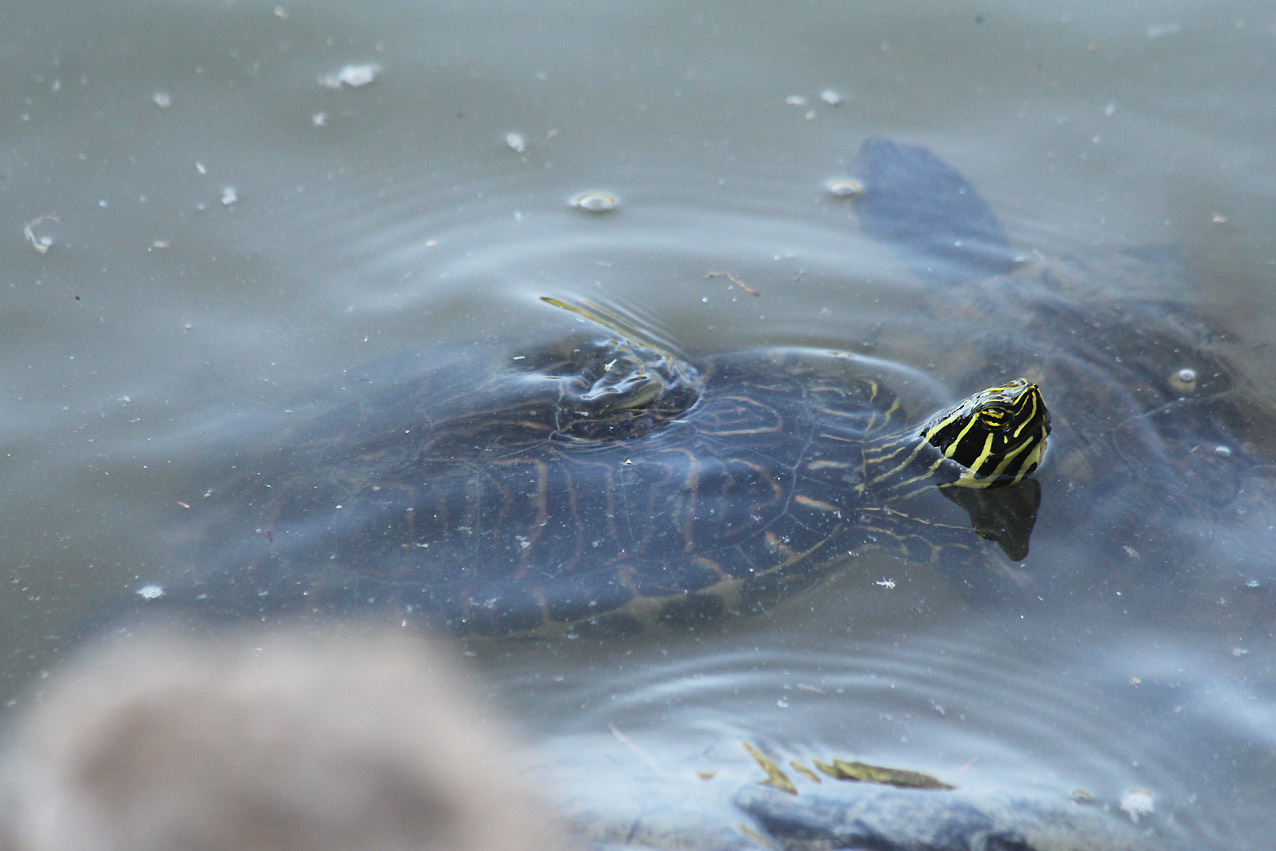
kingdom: Animalia
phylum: Chordata
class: Testudines
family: Emydidae
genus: Pseudemys
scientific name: Pseudemys concinna
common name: Eastern river cooter
